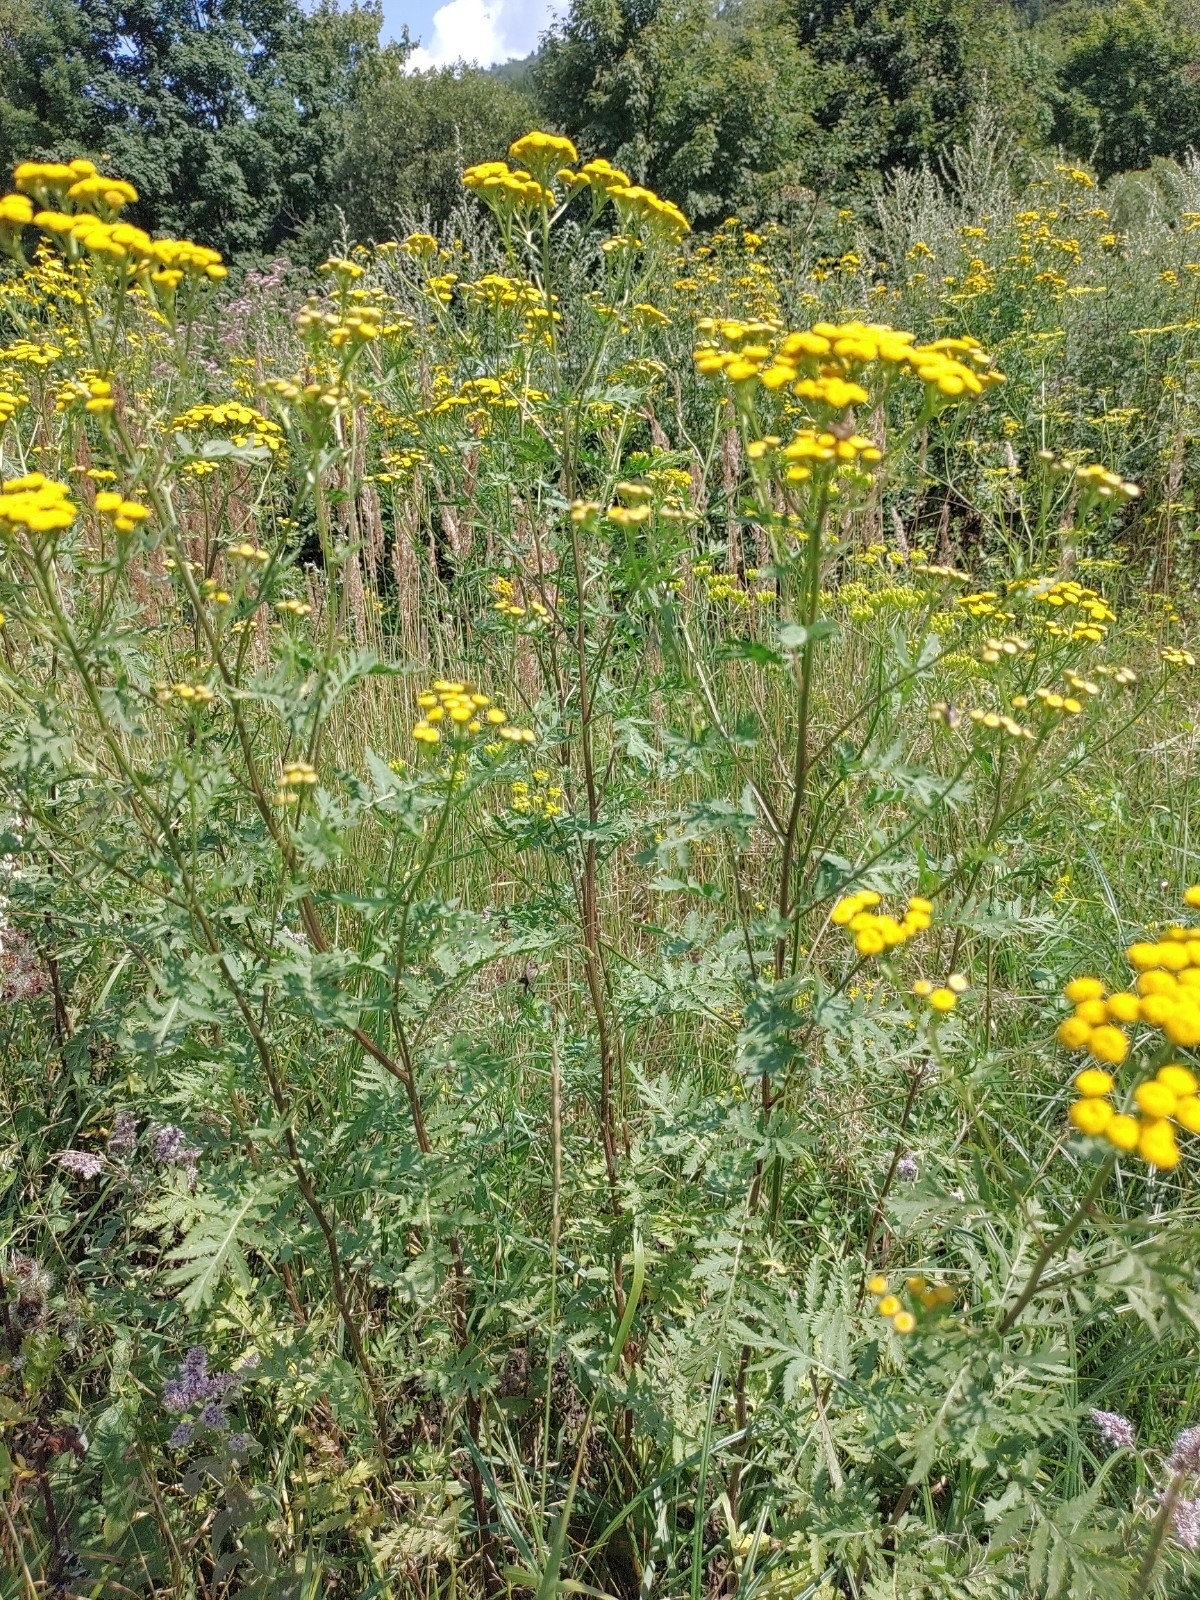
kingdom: Plantae
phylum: Tracheophyta
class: Magnoliopsida
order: Asterales
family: Asteraceae
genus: Tanacetum
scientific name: Tanacetum vulgare
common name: Common tansy
